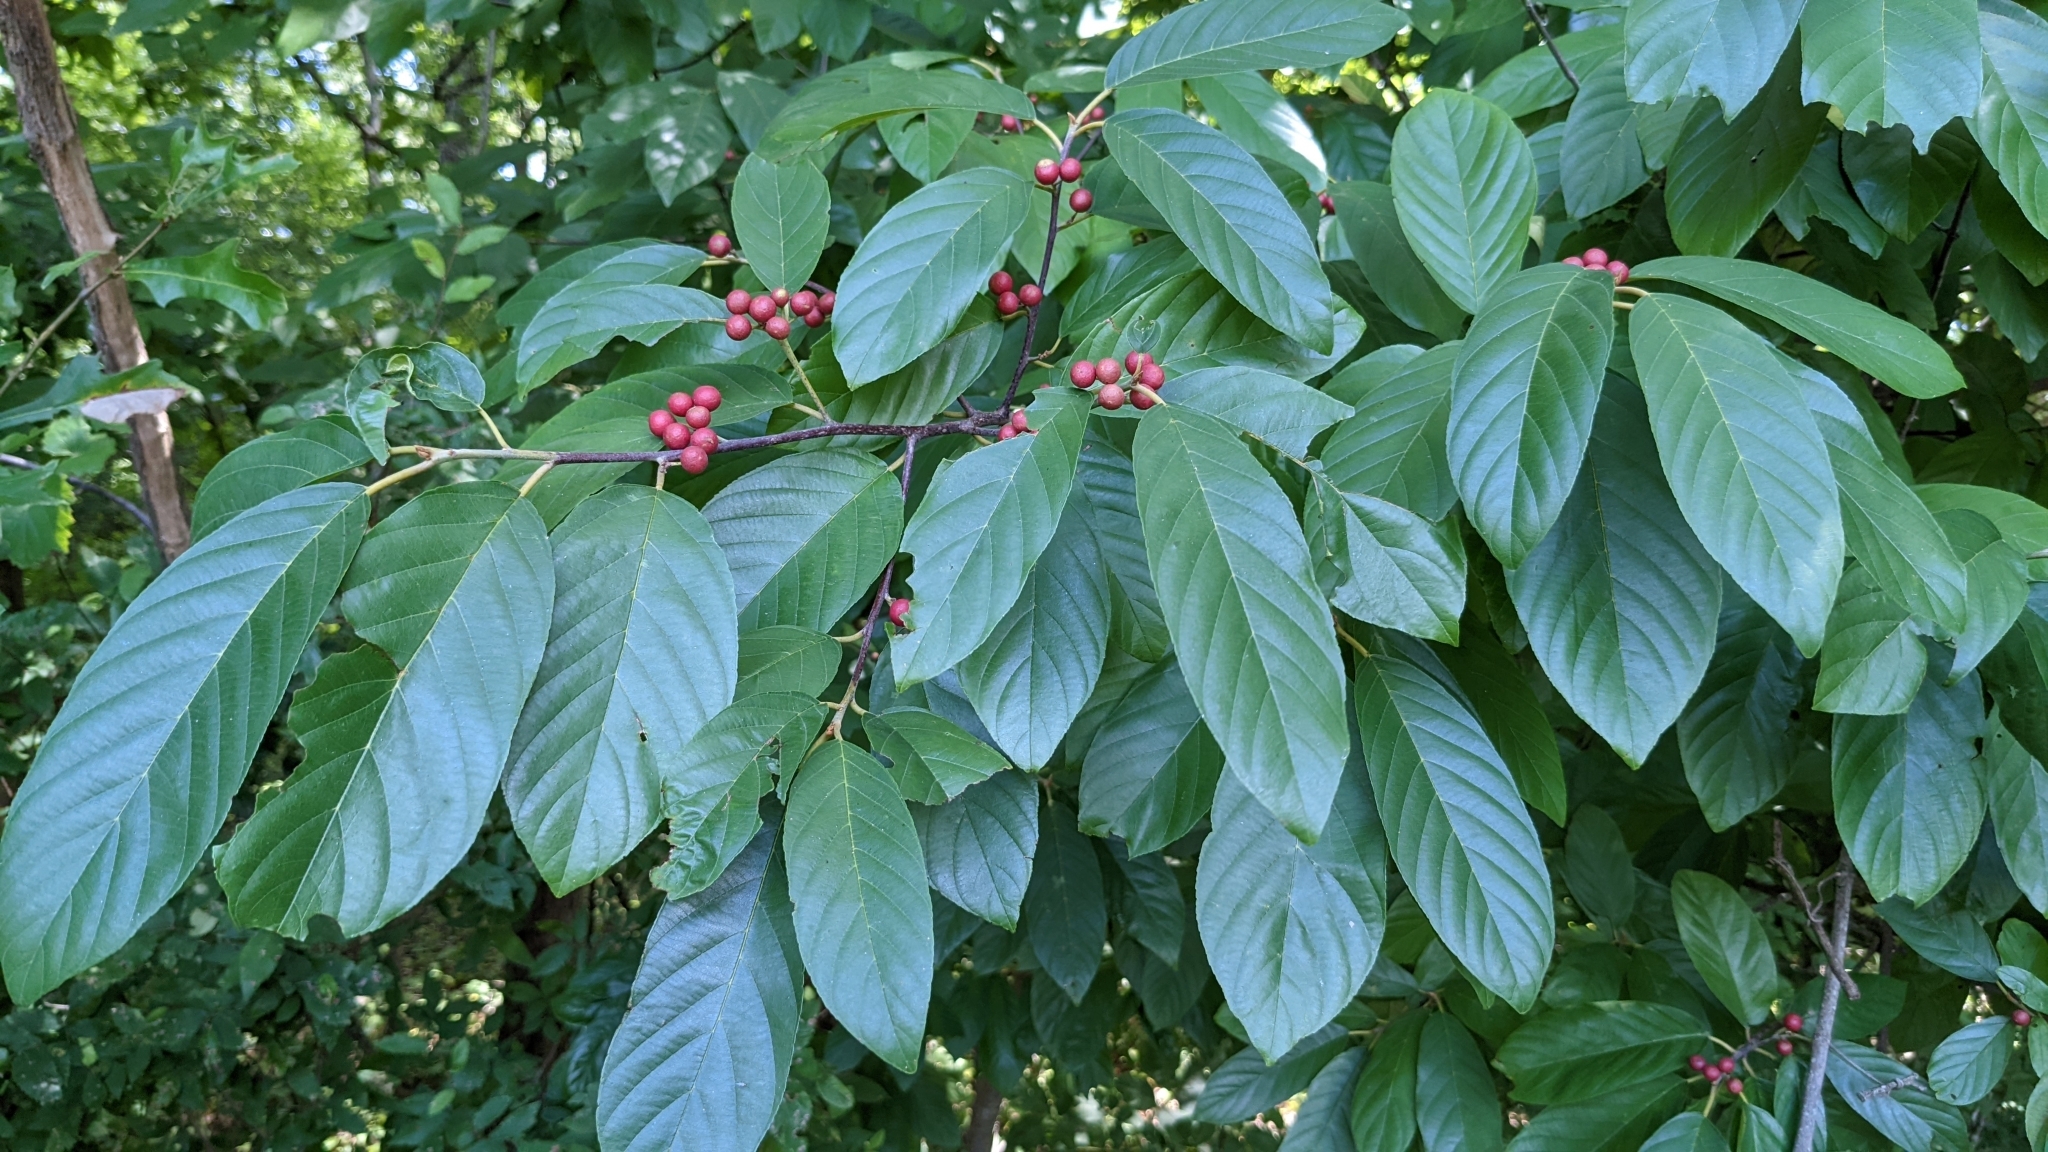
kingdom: Plantae
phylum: Tracheophyta
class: Magnoliopsida
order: Rosales
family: Rhamnaceae
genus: Frangula
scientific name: Frangula caroliniana
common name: Carolina buckthorn
